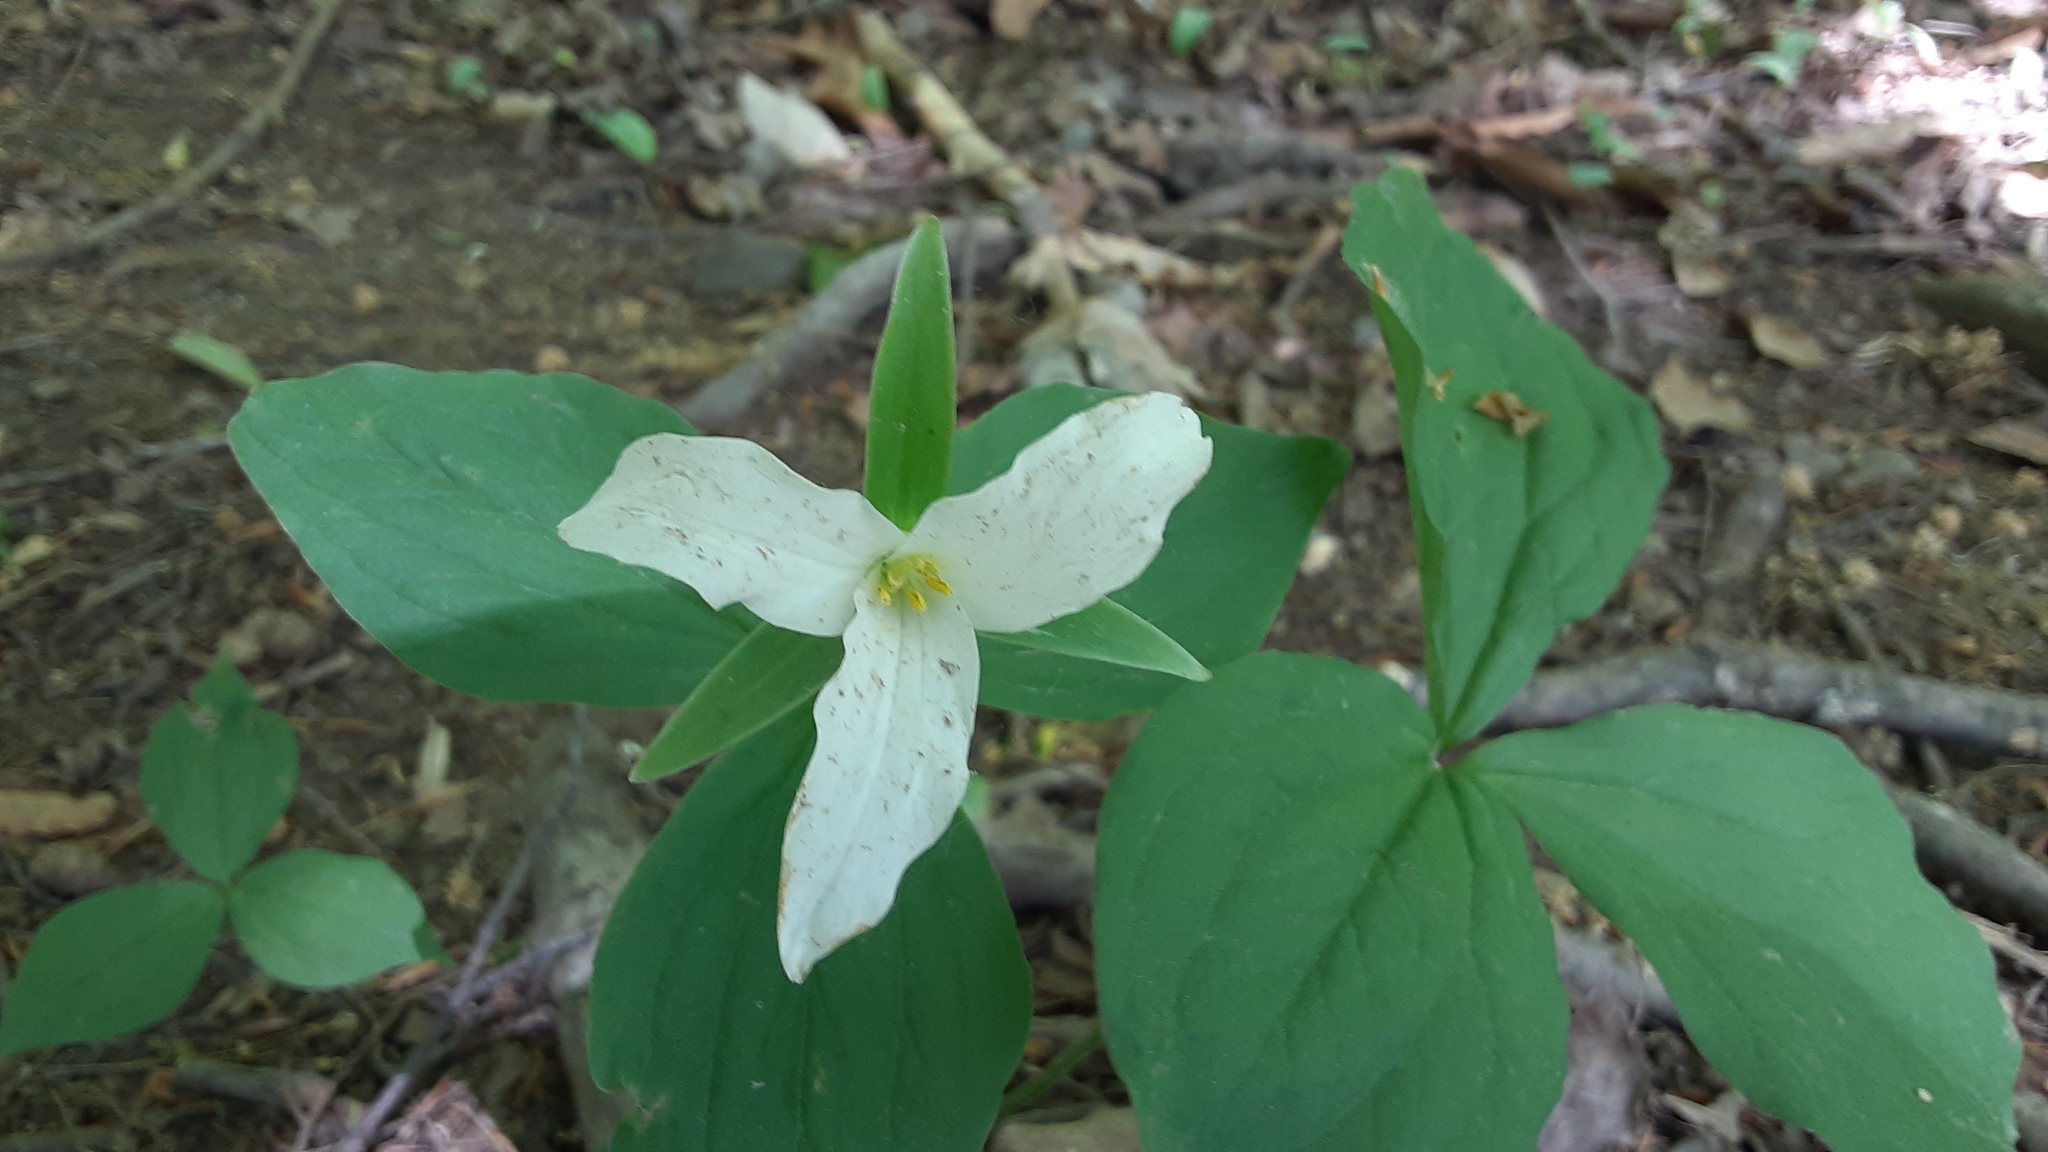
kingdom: Plantae
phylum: Tracheophyta
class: Liliopsida
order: Liliales
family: Melanthiaceae
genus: Trillium
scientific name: Trillium grandiflorum
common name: Great white trillium
